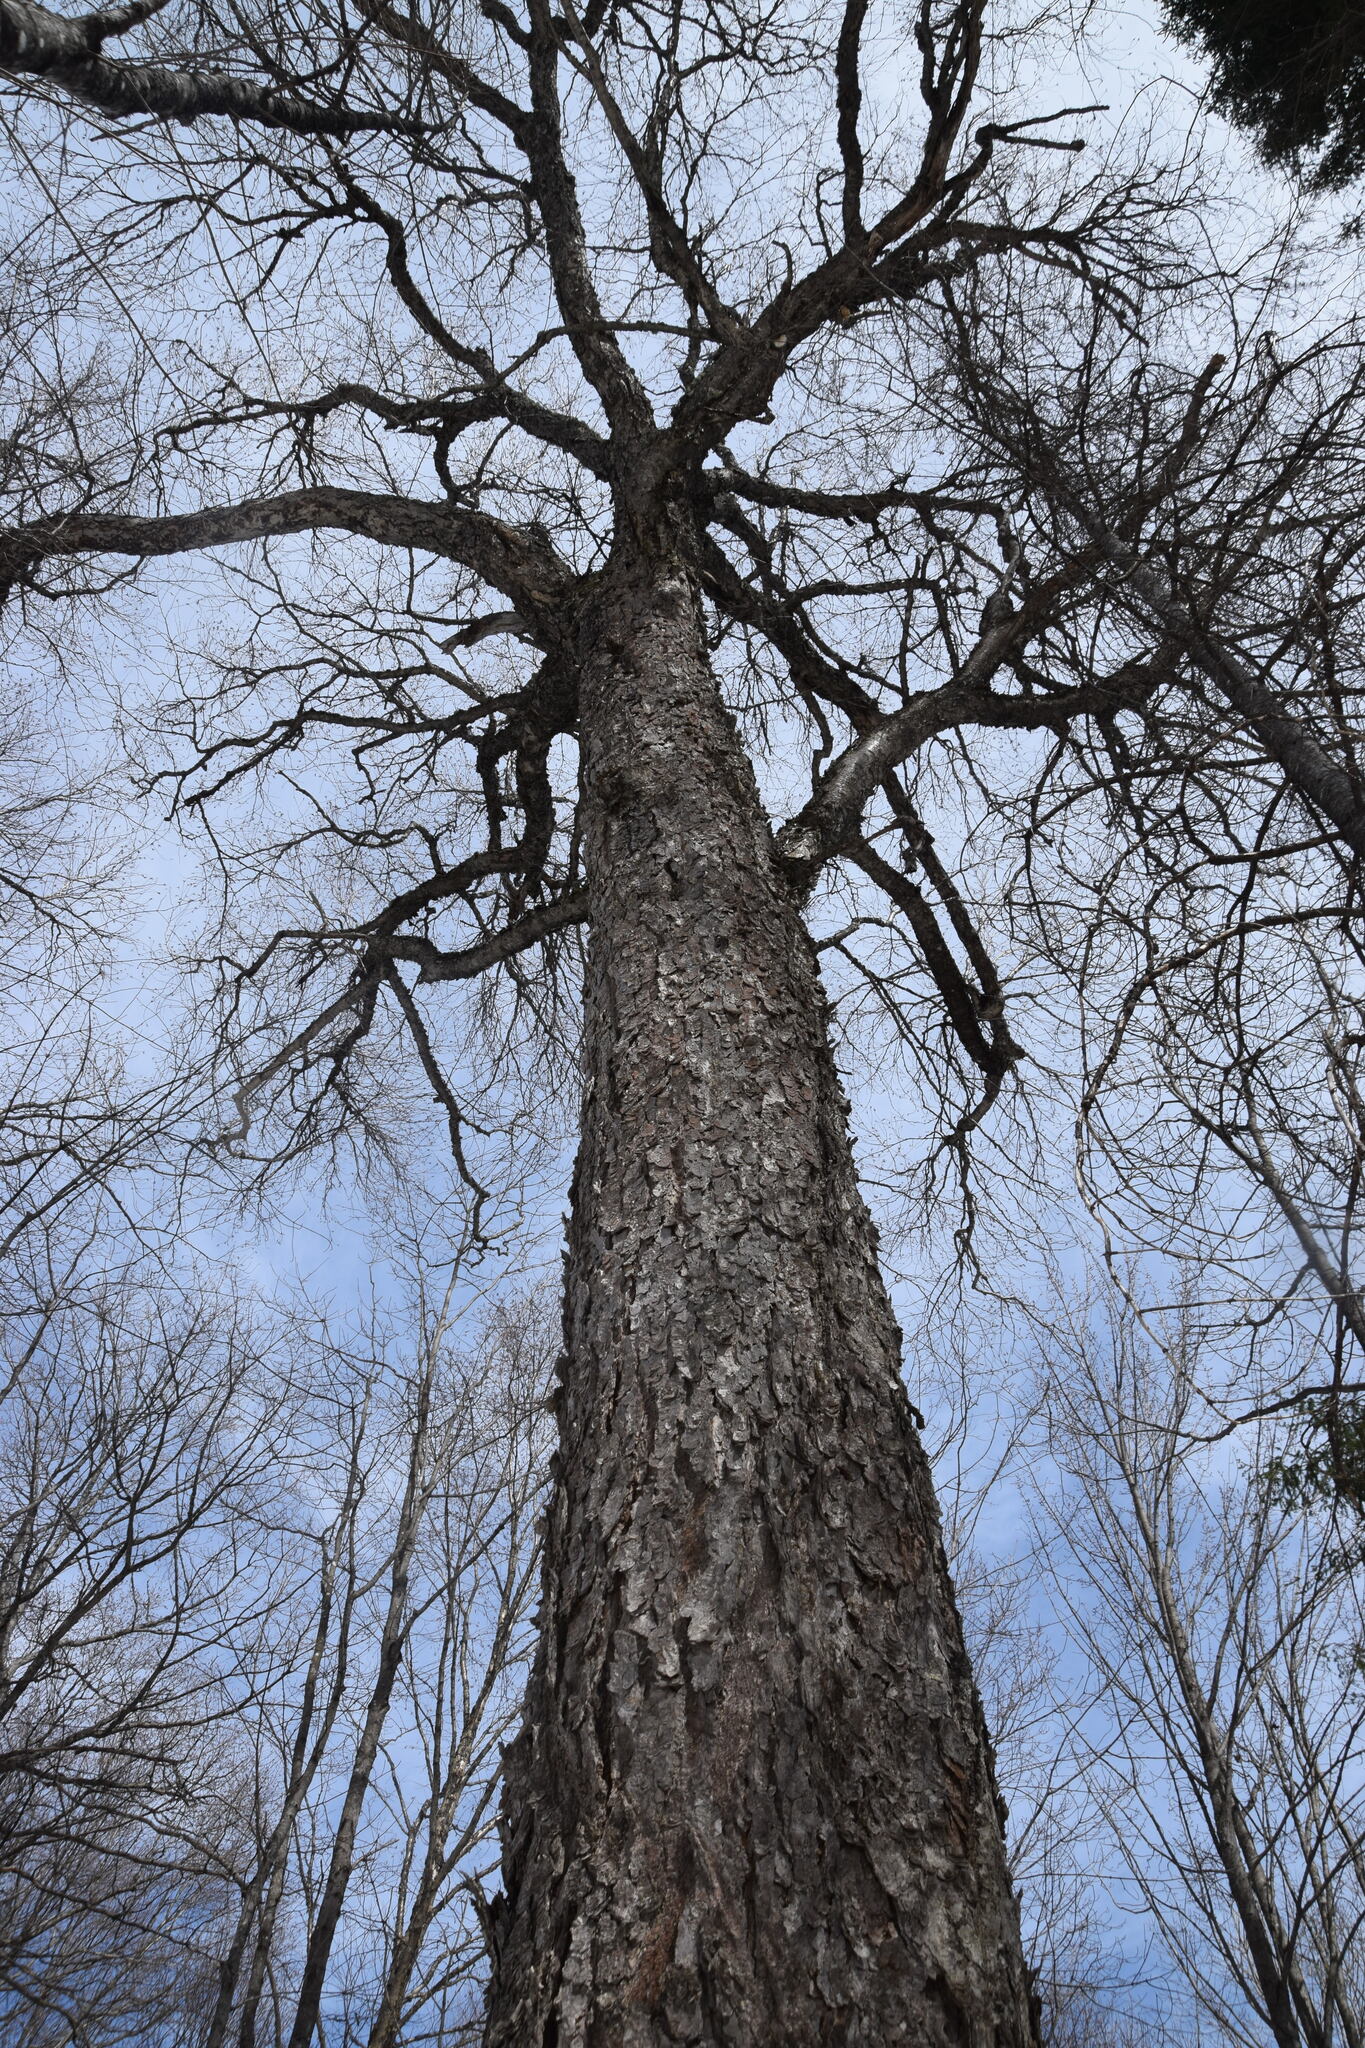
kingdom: Plantae
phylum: Tracheophyta
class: Magnoliopsida
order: Fagales
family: Betulaceae
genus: Betula
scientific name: Betula alleghaniensis
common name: Yellow birch
